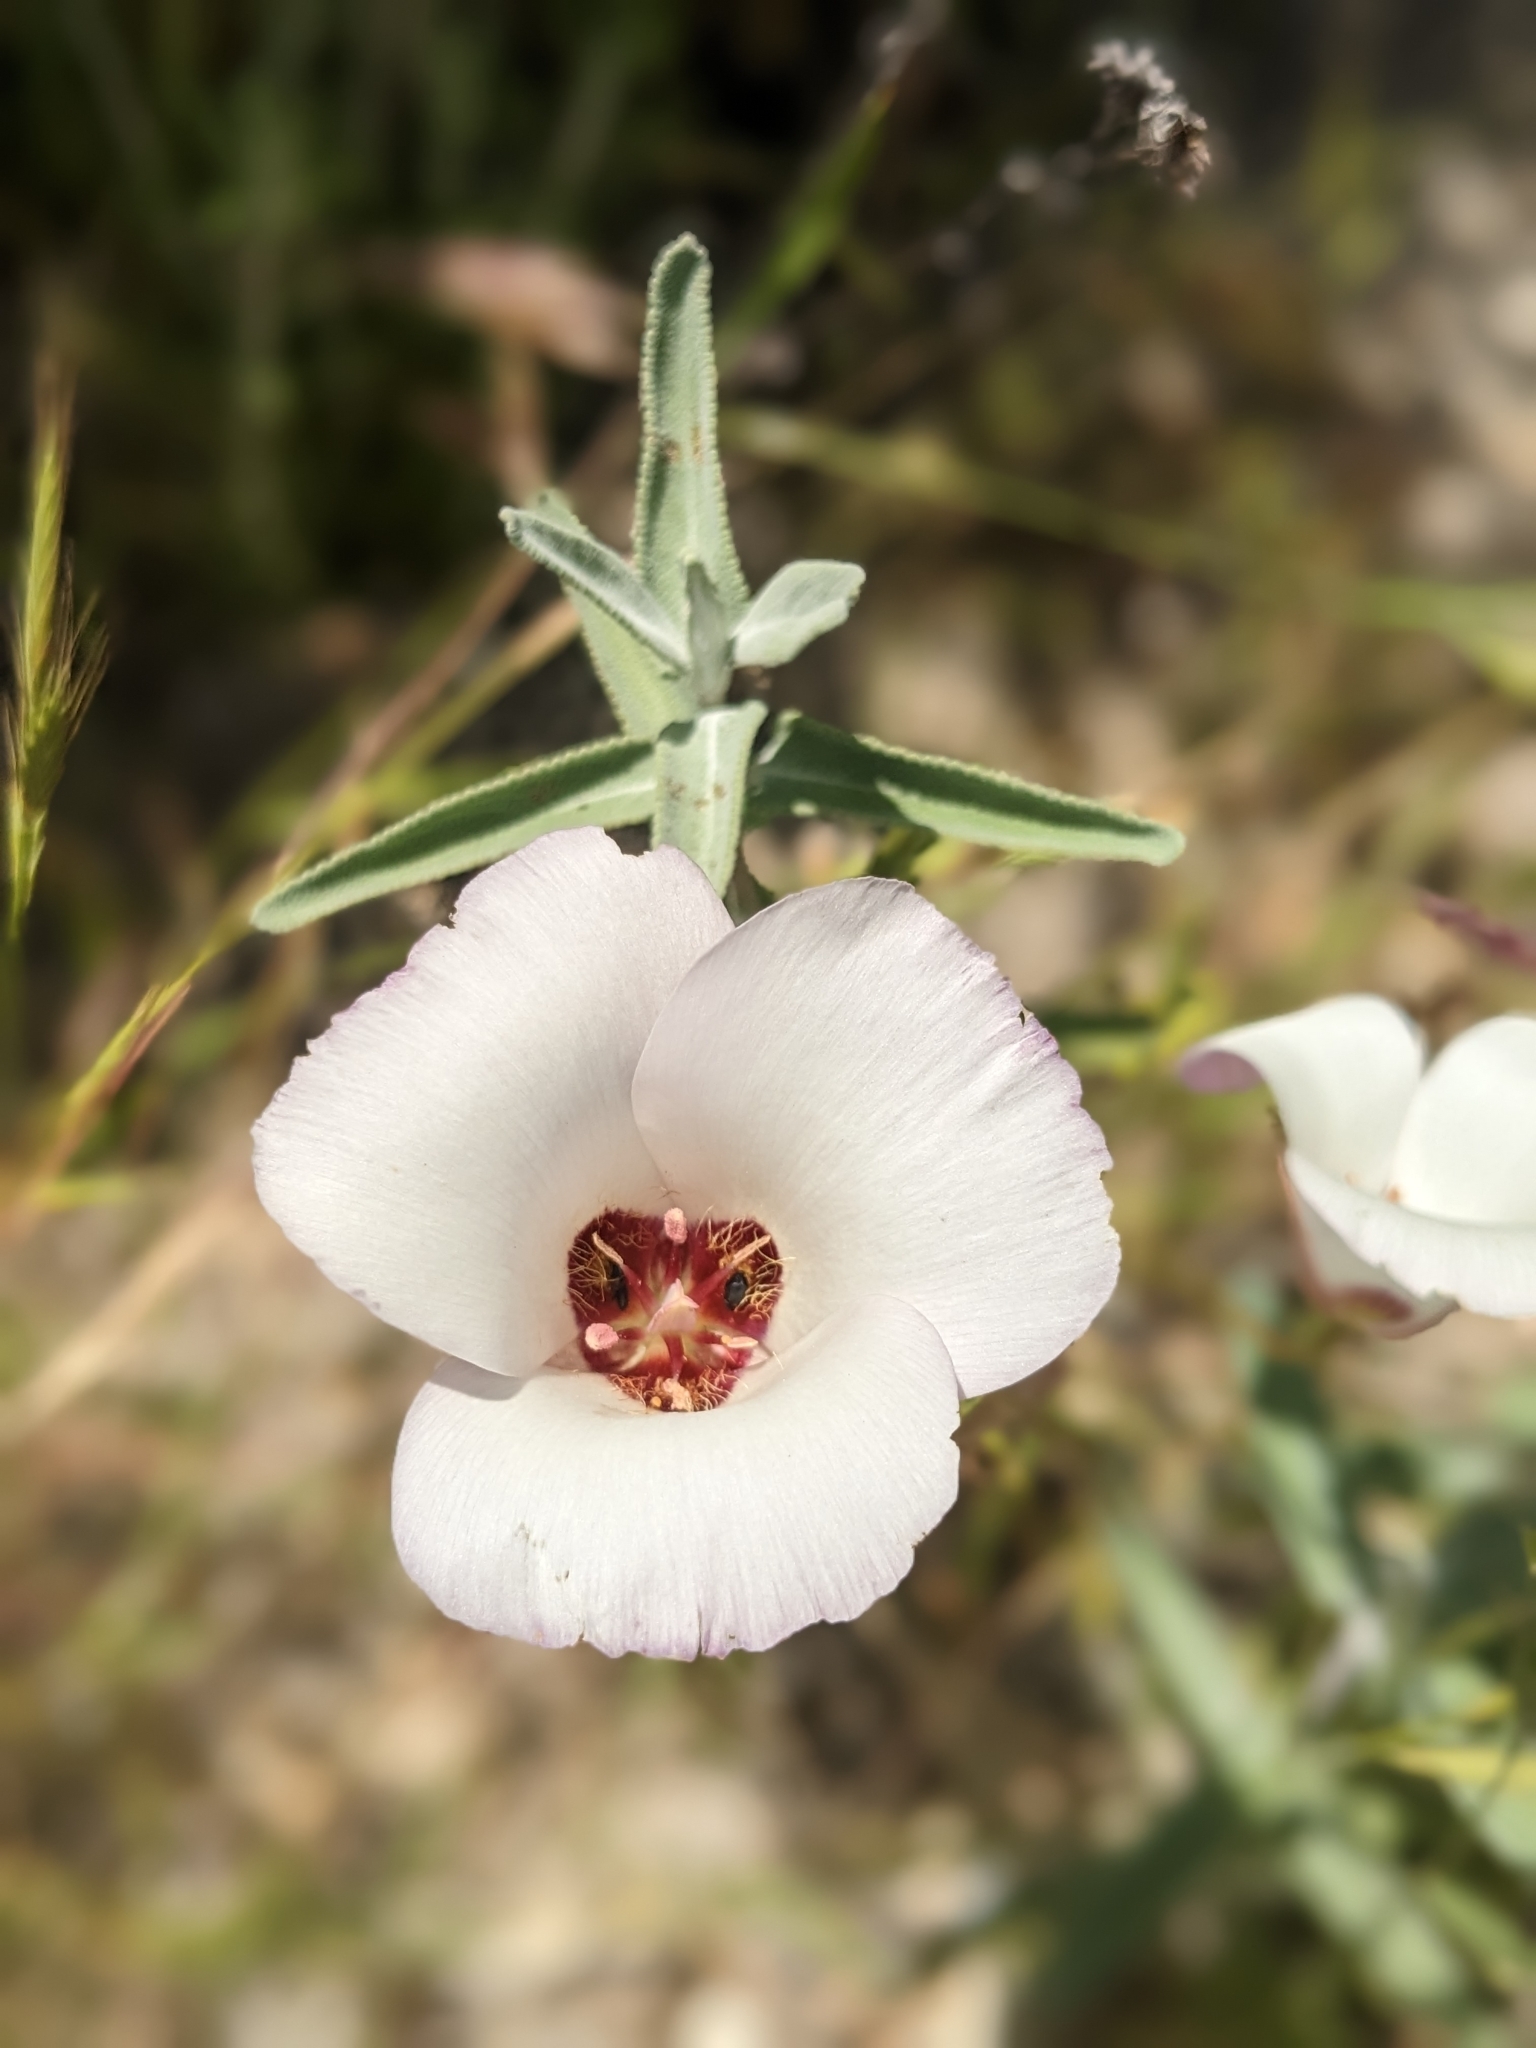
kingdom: Plantae
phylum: Tracheophyta
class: Liliopsida
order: Liliales
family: Liliaceae
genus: Calochortus
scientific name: Calochortus catalinae
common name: Catalina mariposa-lily
